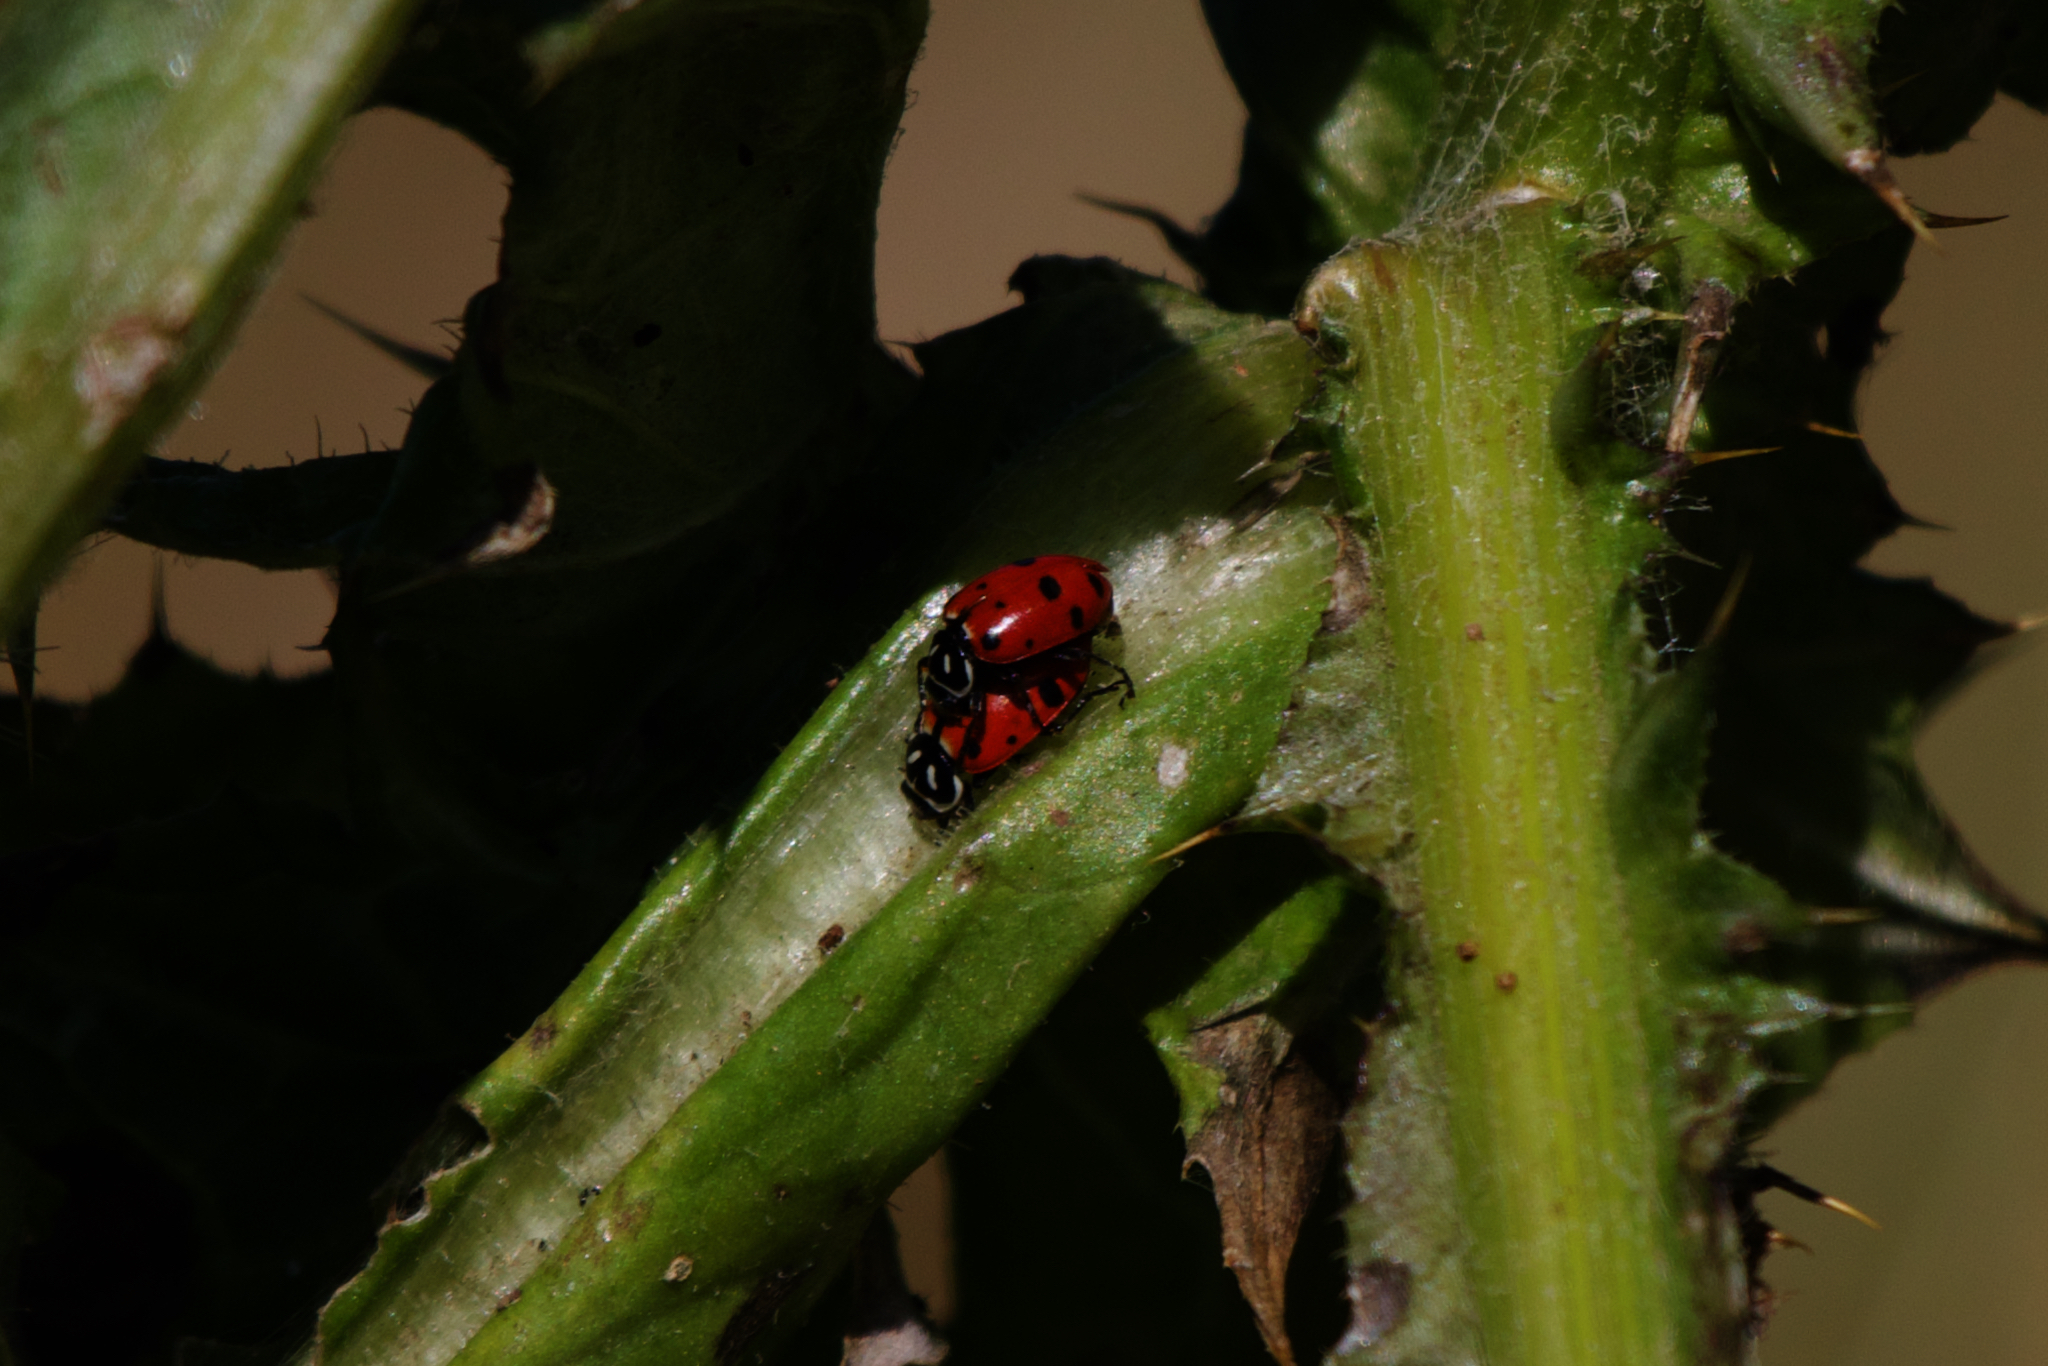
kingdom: Animalia
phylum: Arthropoda
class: Insecta
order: Coleoptera
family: Coccinellidae
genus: Hippodamia
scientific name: Hippodamia convergens
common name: Convergent lady beetle
